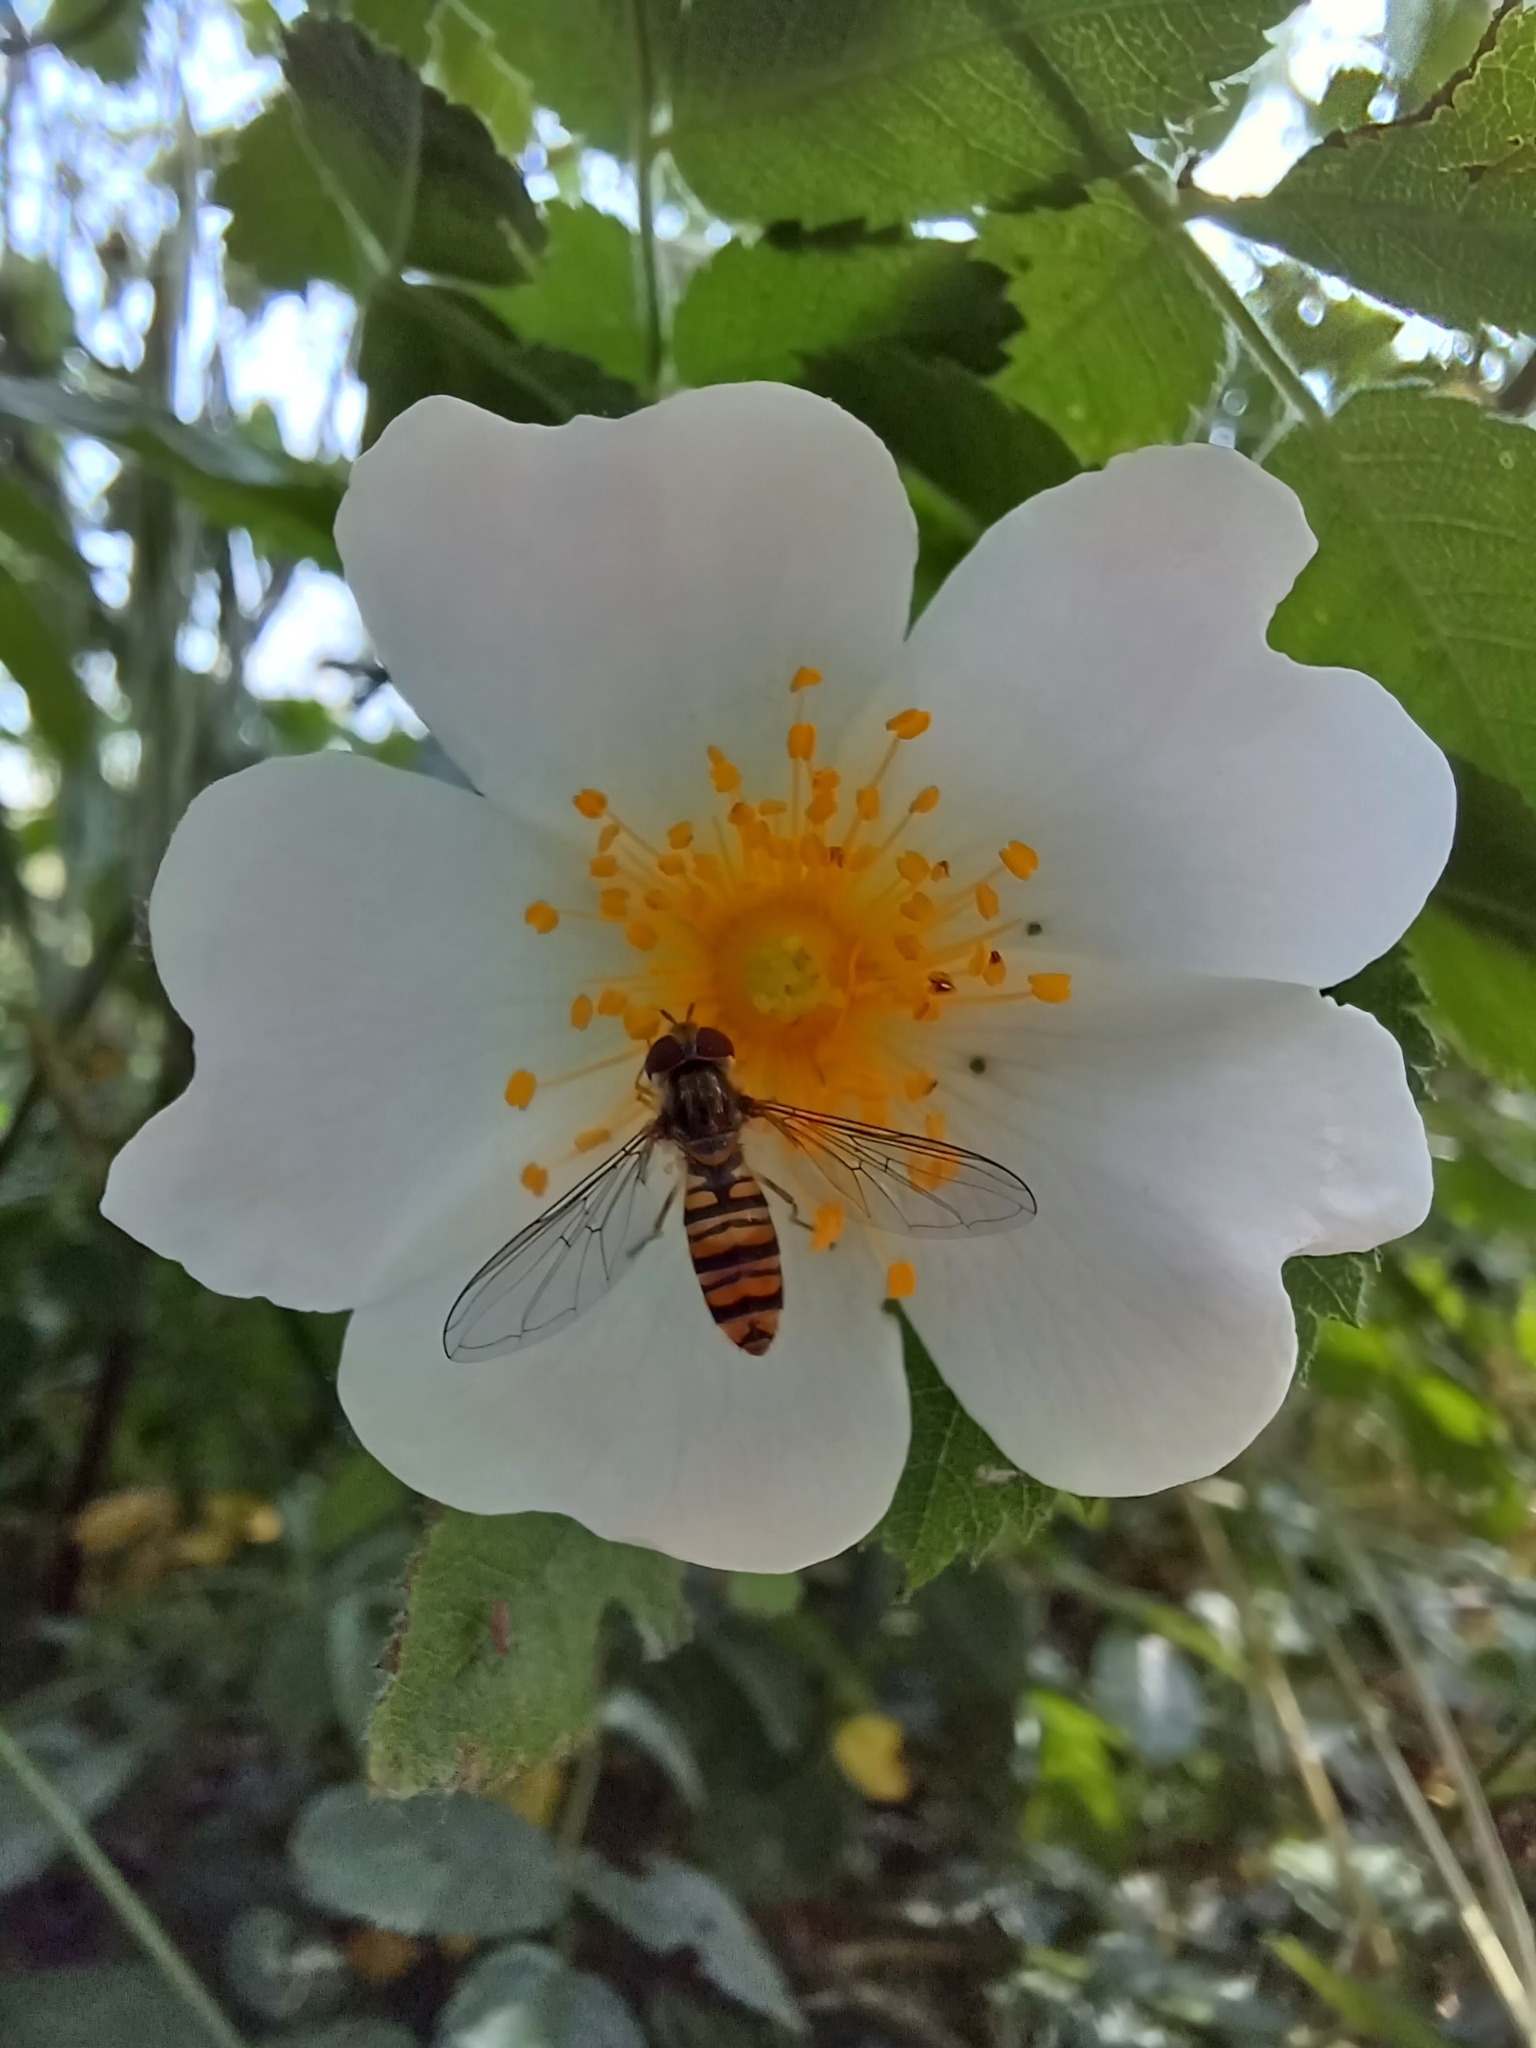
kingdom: Animalia
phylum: Arthropoda
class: Insecta
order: Diptera
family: Syrphidae
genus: Episyrphus
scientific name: Episyrphus balteatus
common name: Marmalade hoverfly
